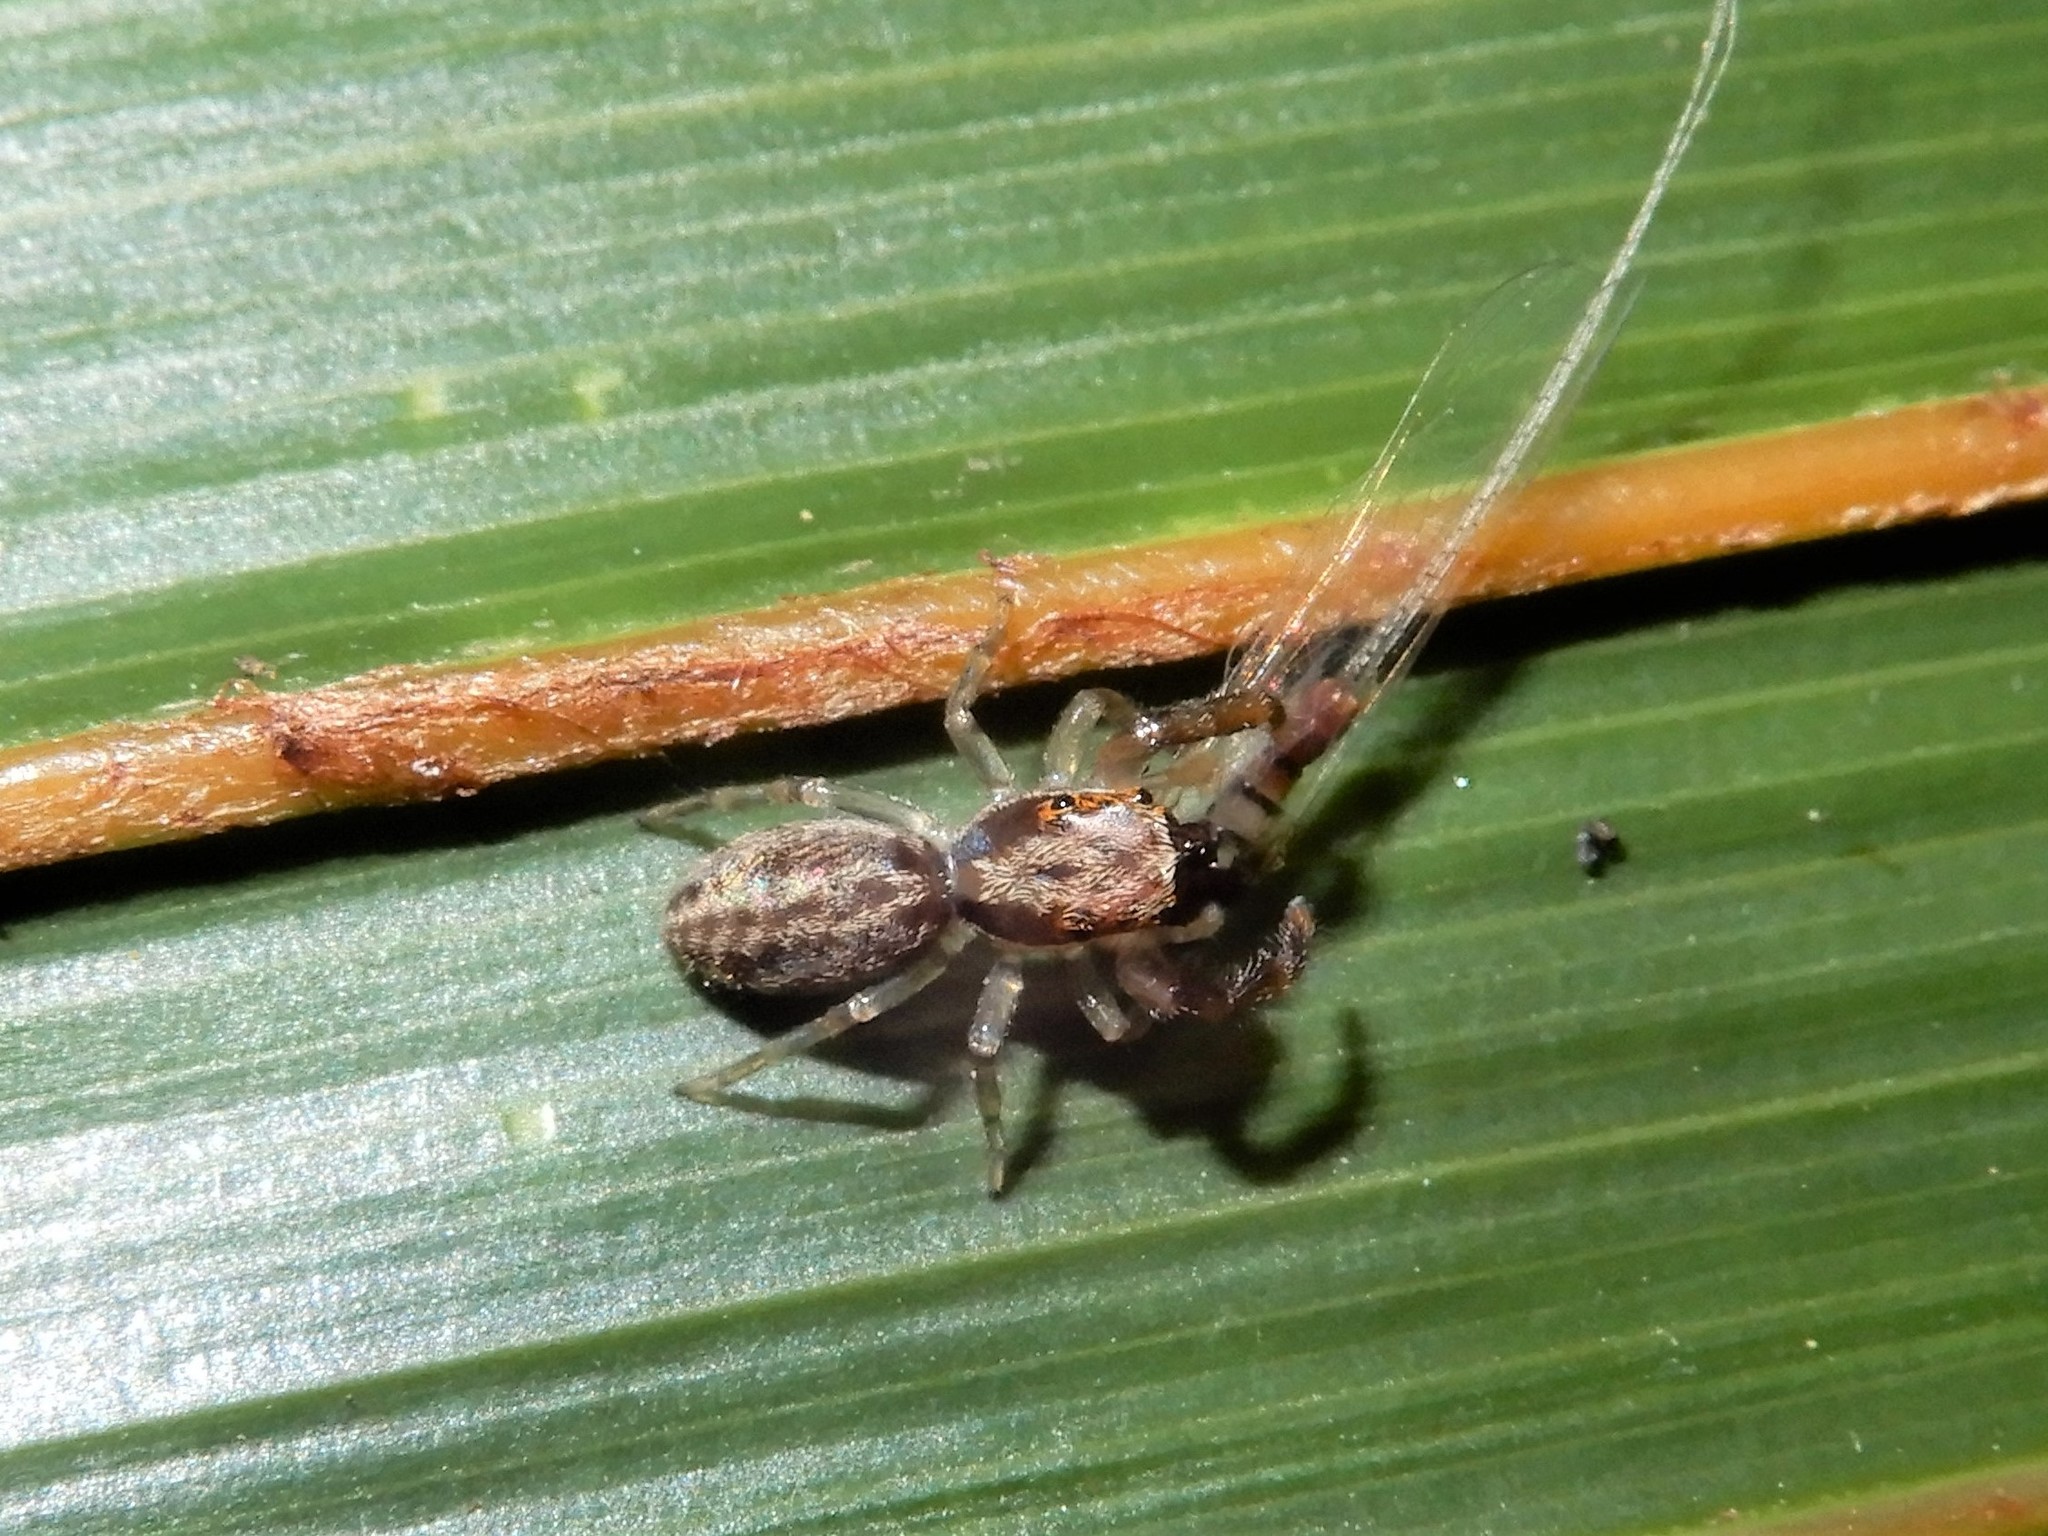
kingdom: Animalia
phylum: Arthropoda
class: Arachnida
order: Araneae
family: Salticidae
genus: Trite
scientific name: Trite mustilina
